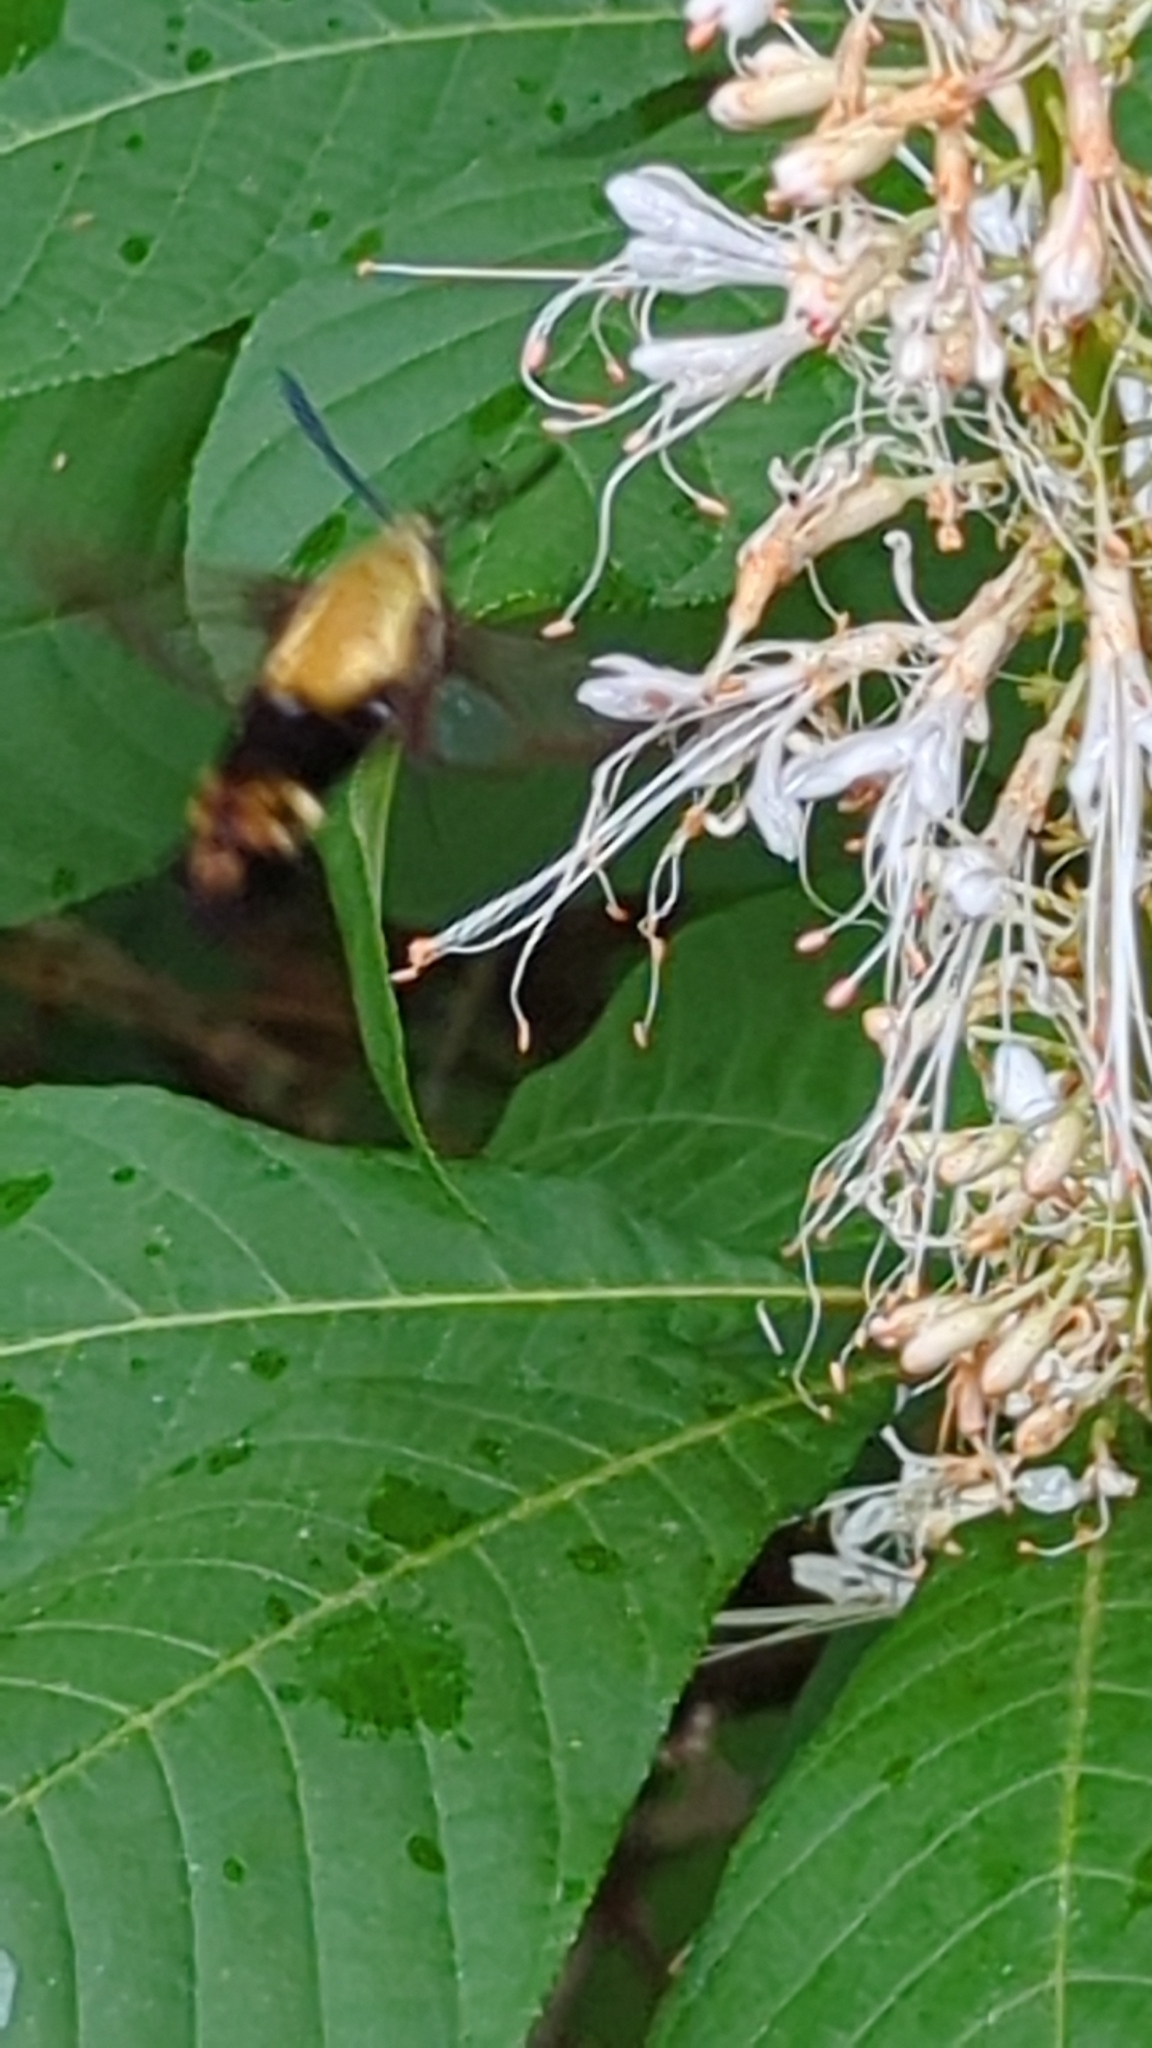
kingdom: Animalia
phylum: Arthropoda
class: Insecta
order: Lepidoptera
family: Sphingidae
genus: Hemaris
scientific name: Hemaris diffinis
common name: Bumblebee moth
